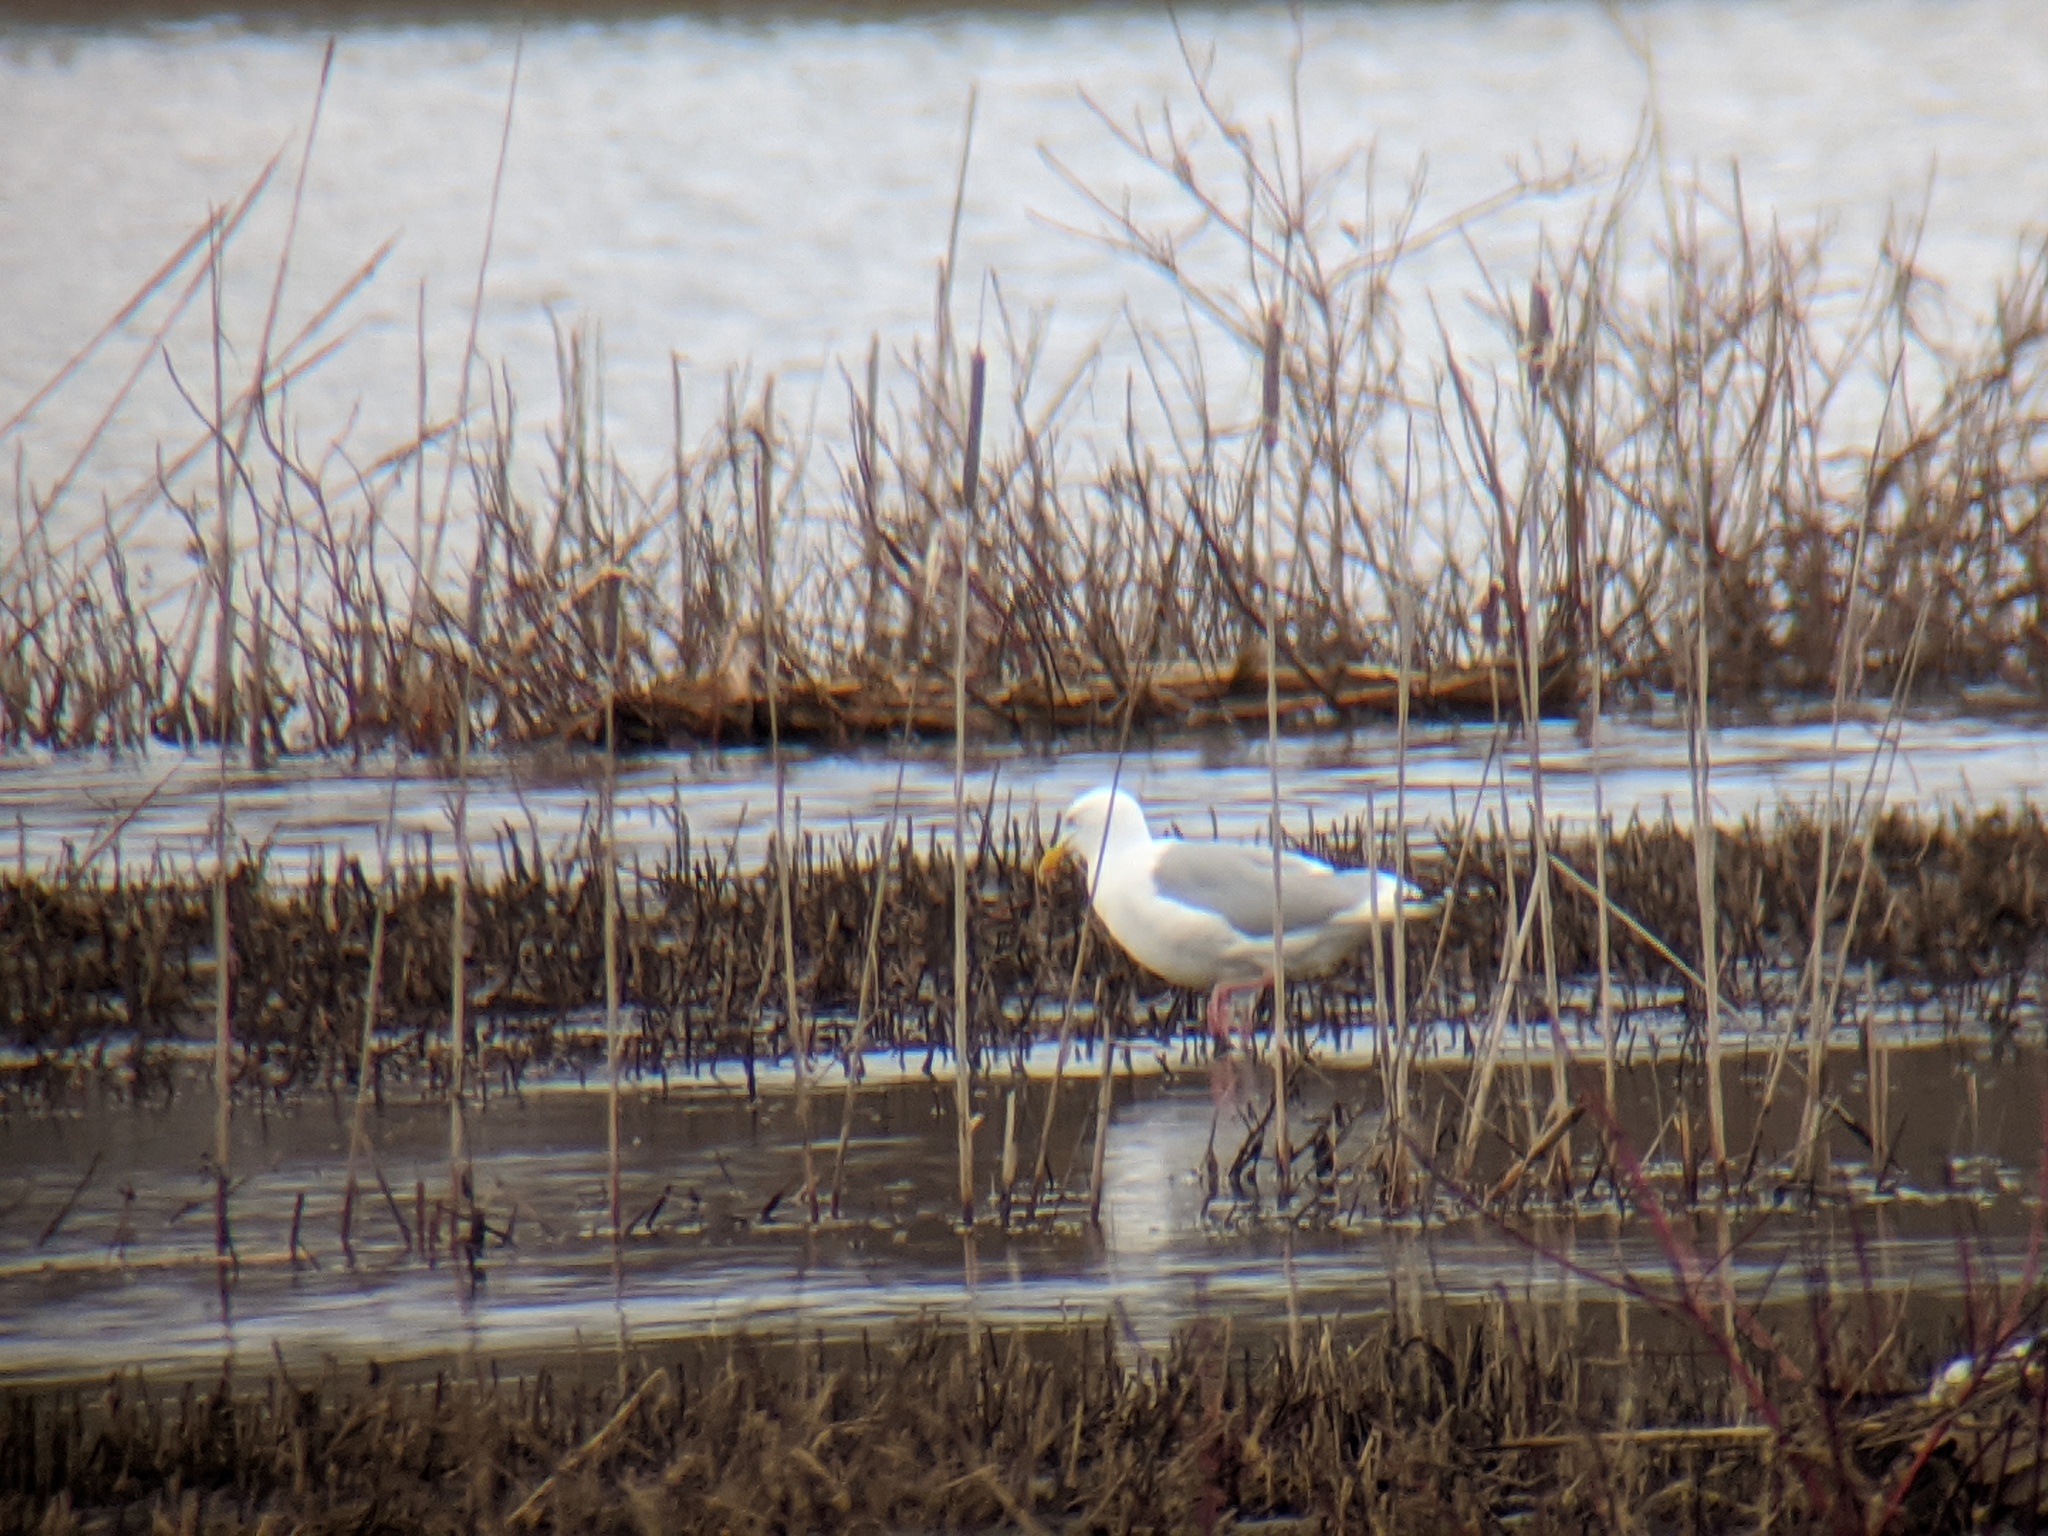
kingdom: Animalia
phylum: Chordata
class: Aves
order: Charadriiformes
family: Laridae
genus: Larus
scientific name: Larus argentatus
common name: Herring gull
